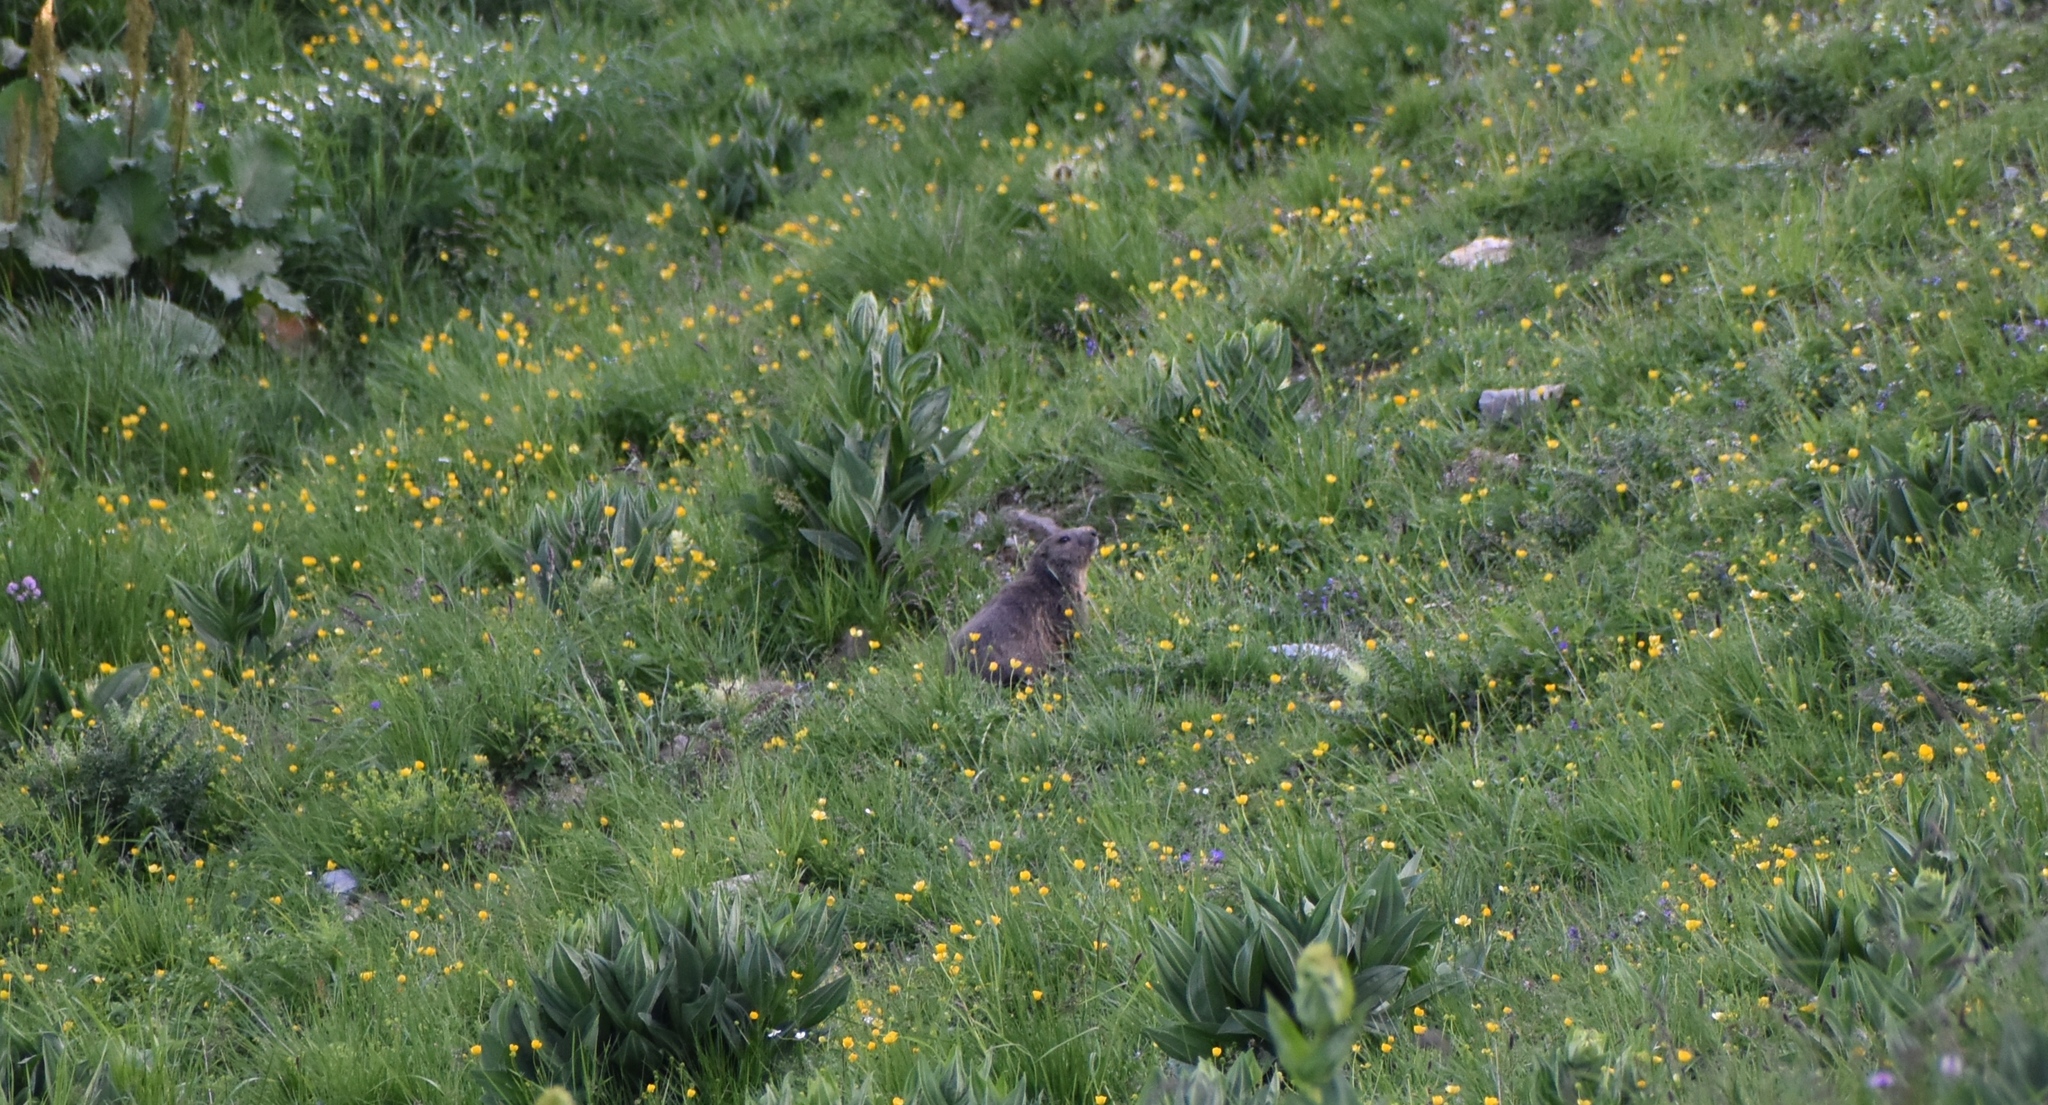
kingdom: Animalia
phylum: Chordata
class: Mammalia
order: Rodentia
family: Sciuridae
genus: Marmota
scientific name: Marmota marmota
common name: Alpine marmot
